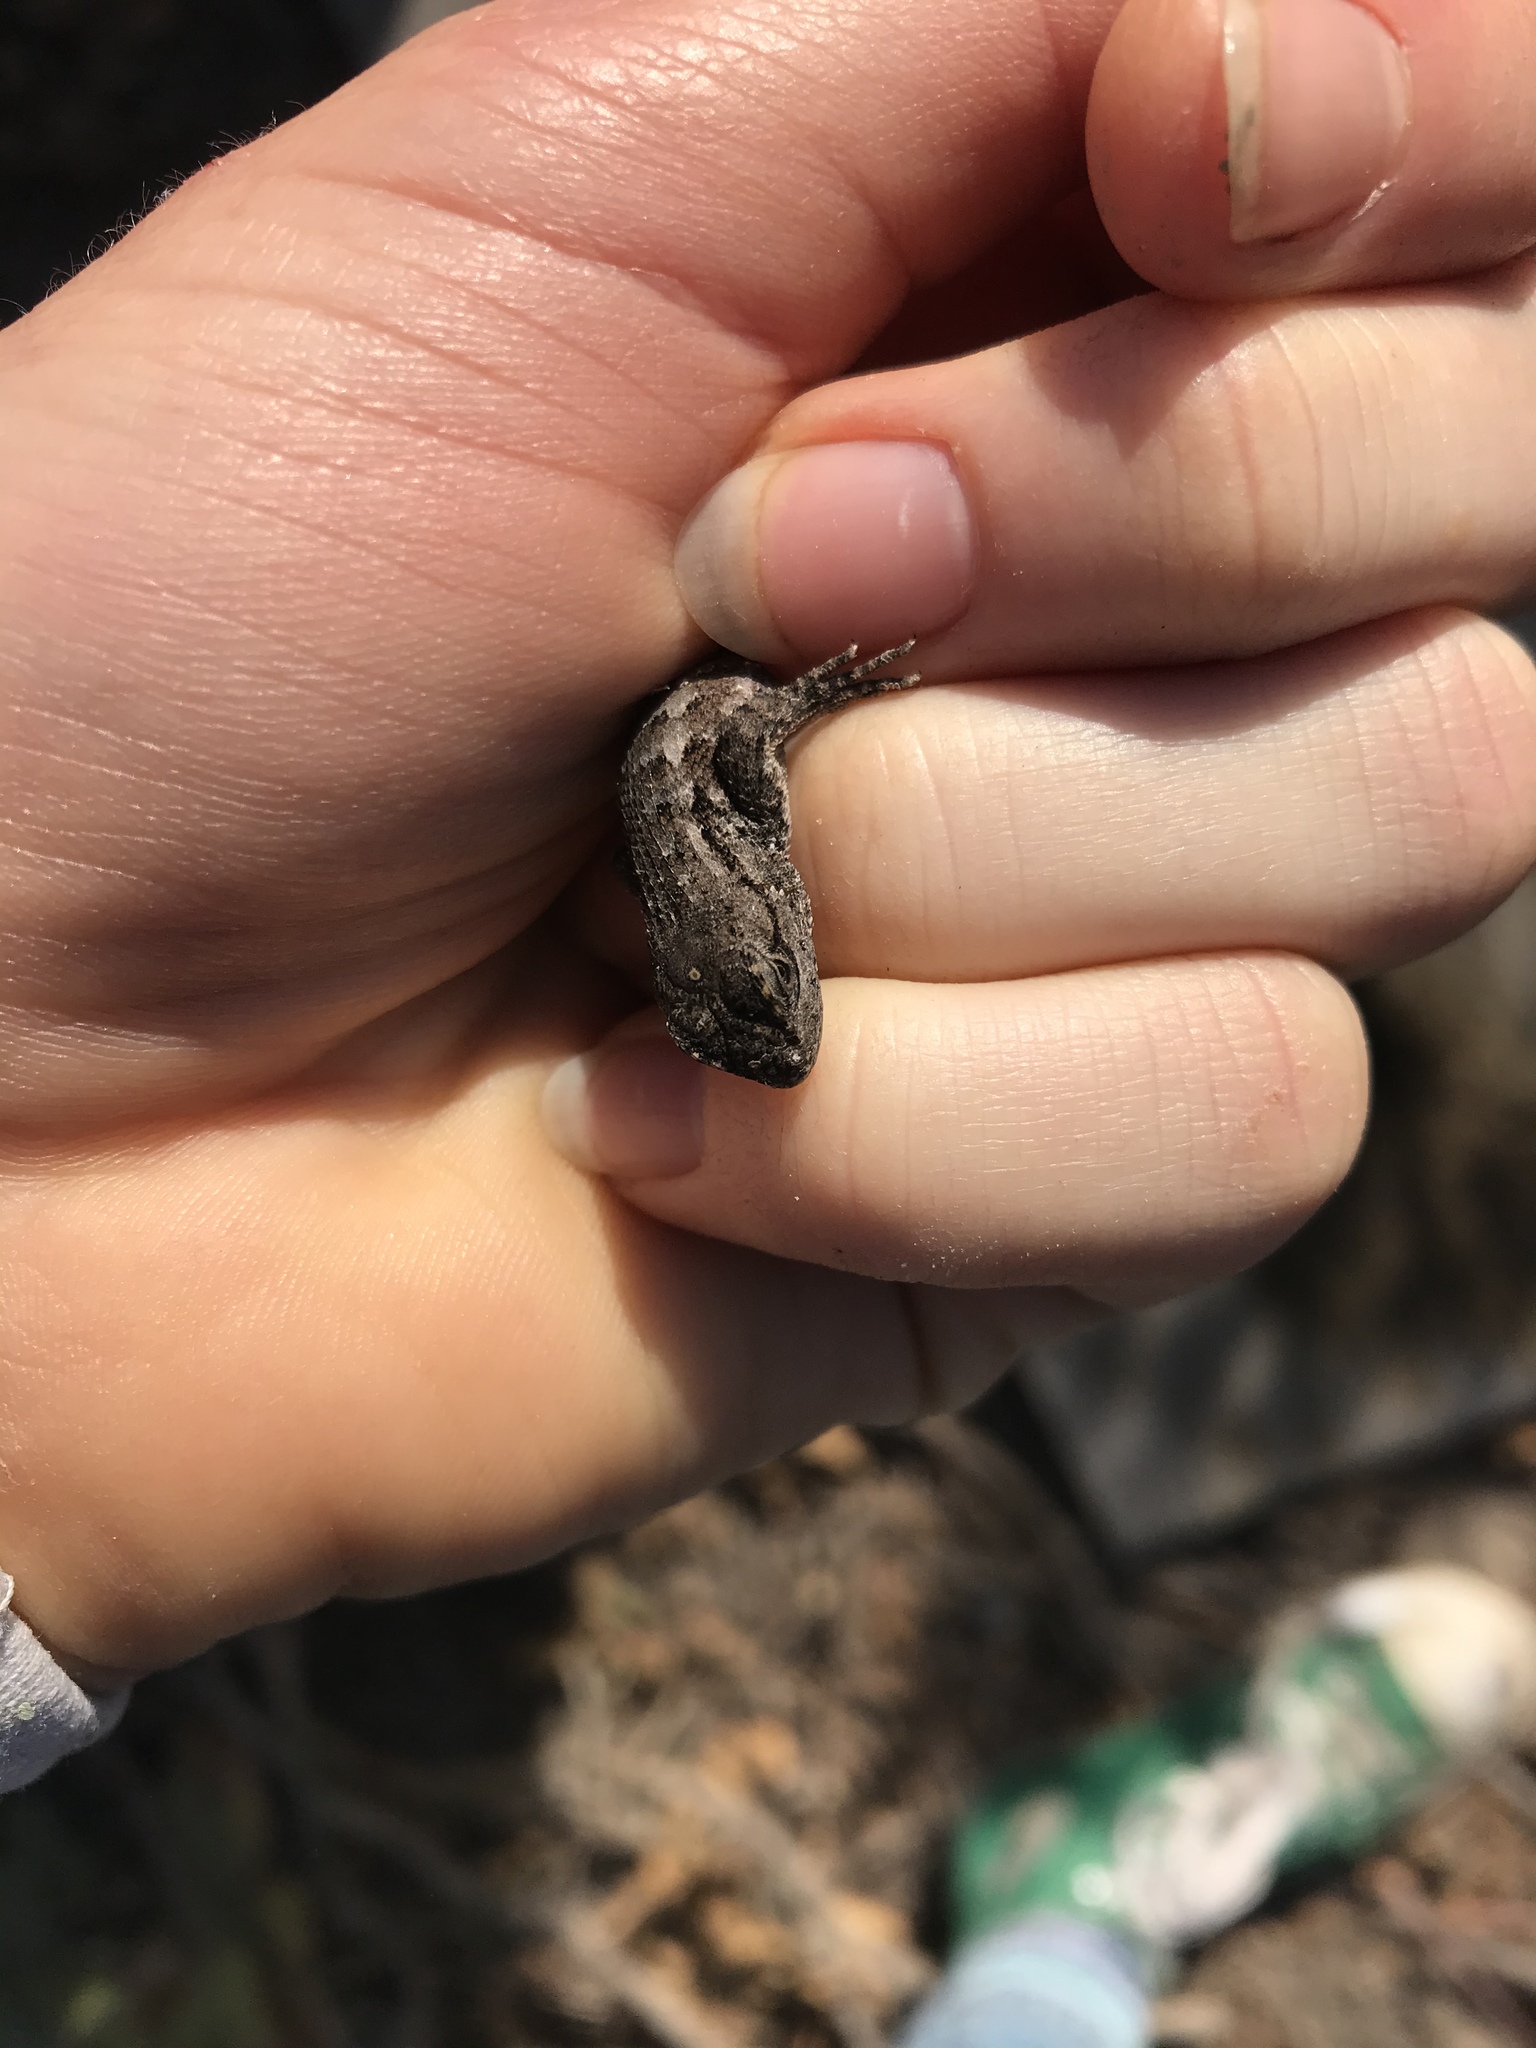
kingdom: Animalia
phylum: Chordata
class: Squamata
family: Phrynosomatidae
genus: Sceloporus
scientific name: Sceloporus occidentalis
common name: Western fence lizard
